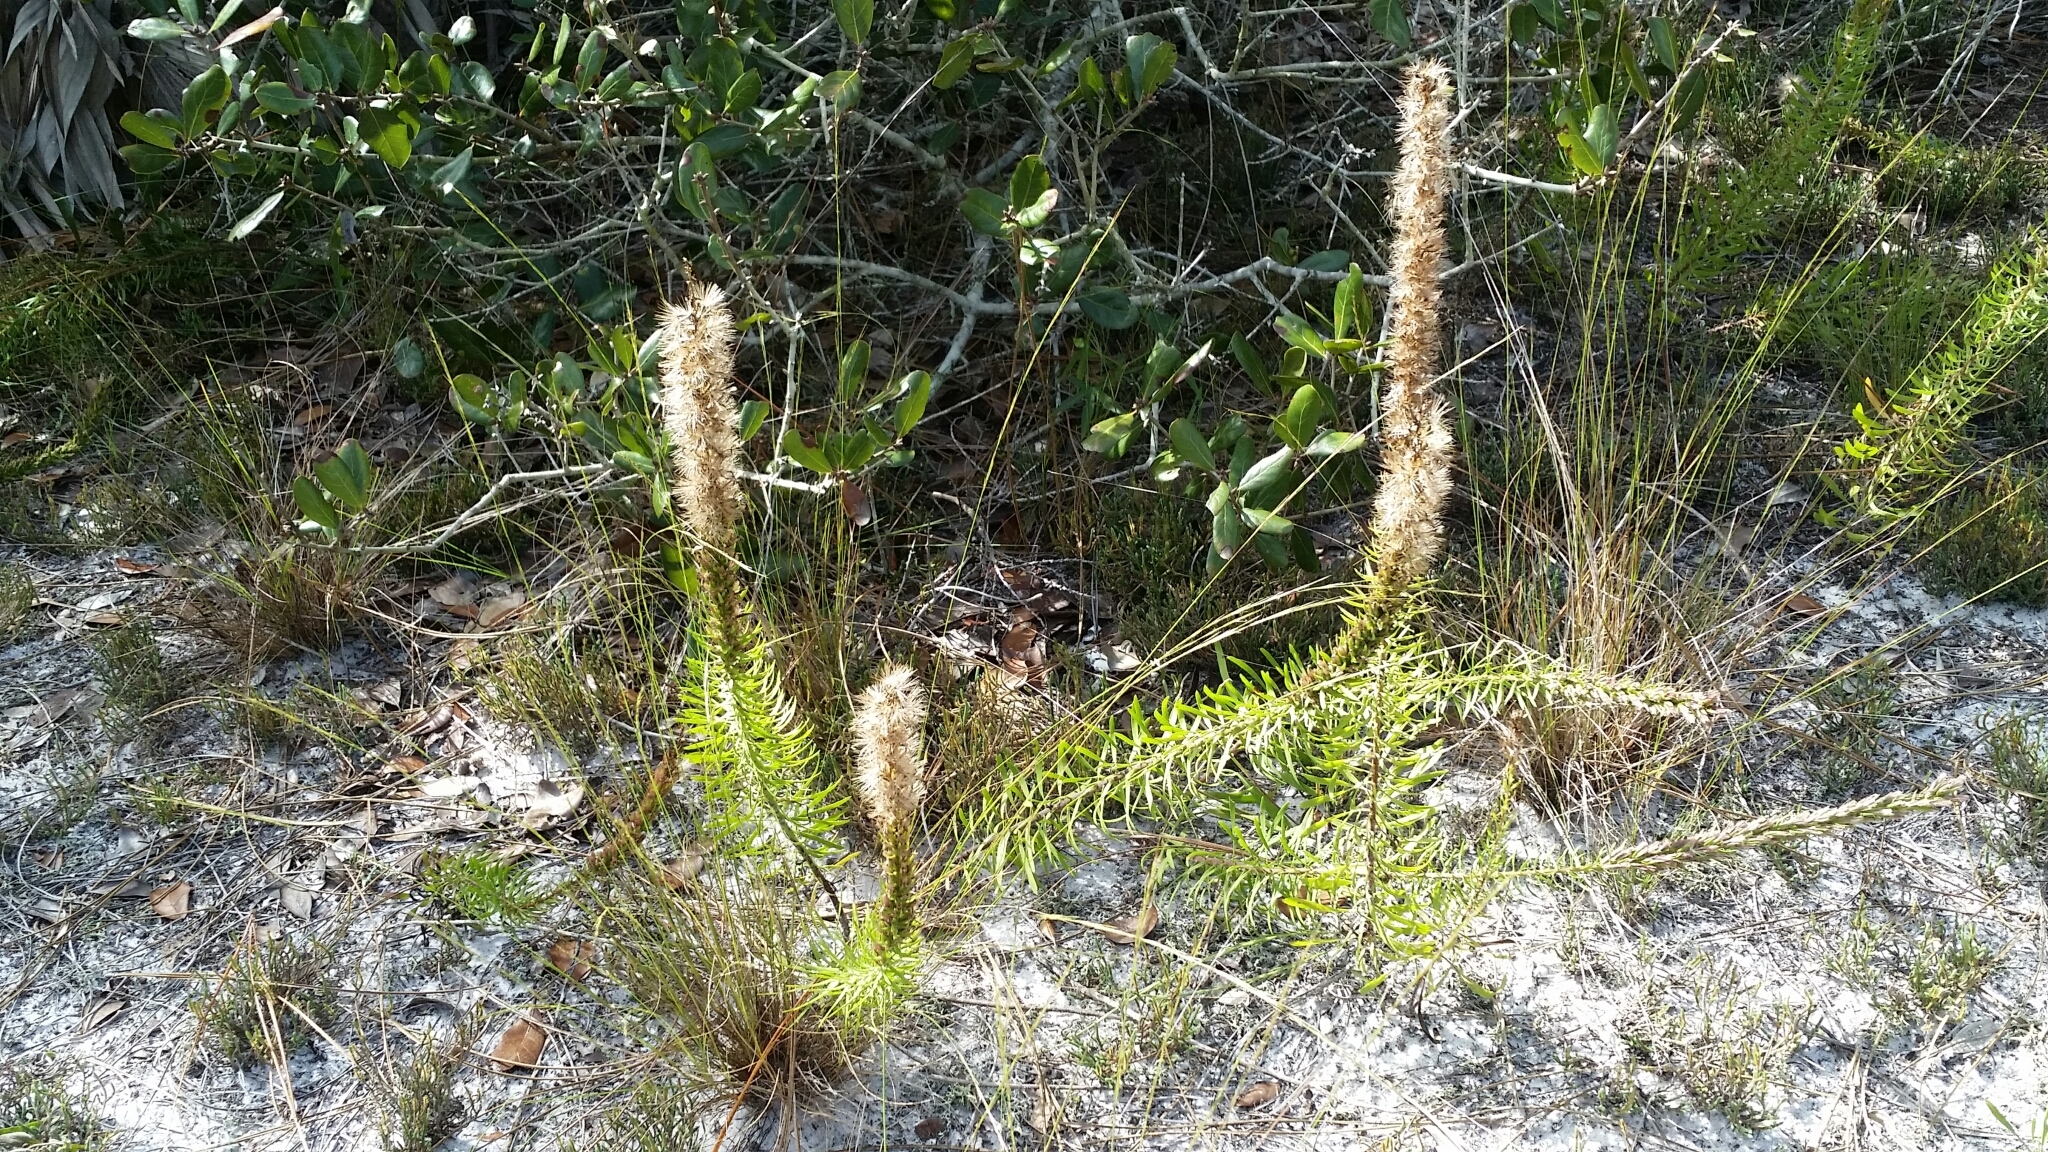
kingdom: Plantae
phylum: Tracheophyta
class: Magnoliopsida
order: Asterales
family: Asteraceae
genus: Liatris
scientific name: Liatris chapmanii
